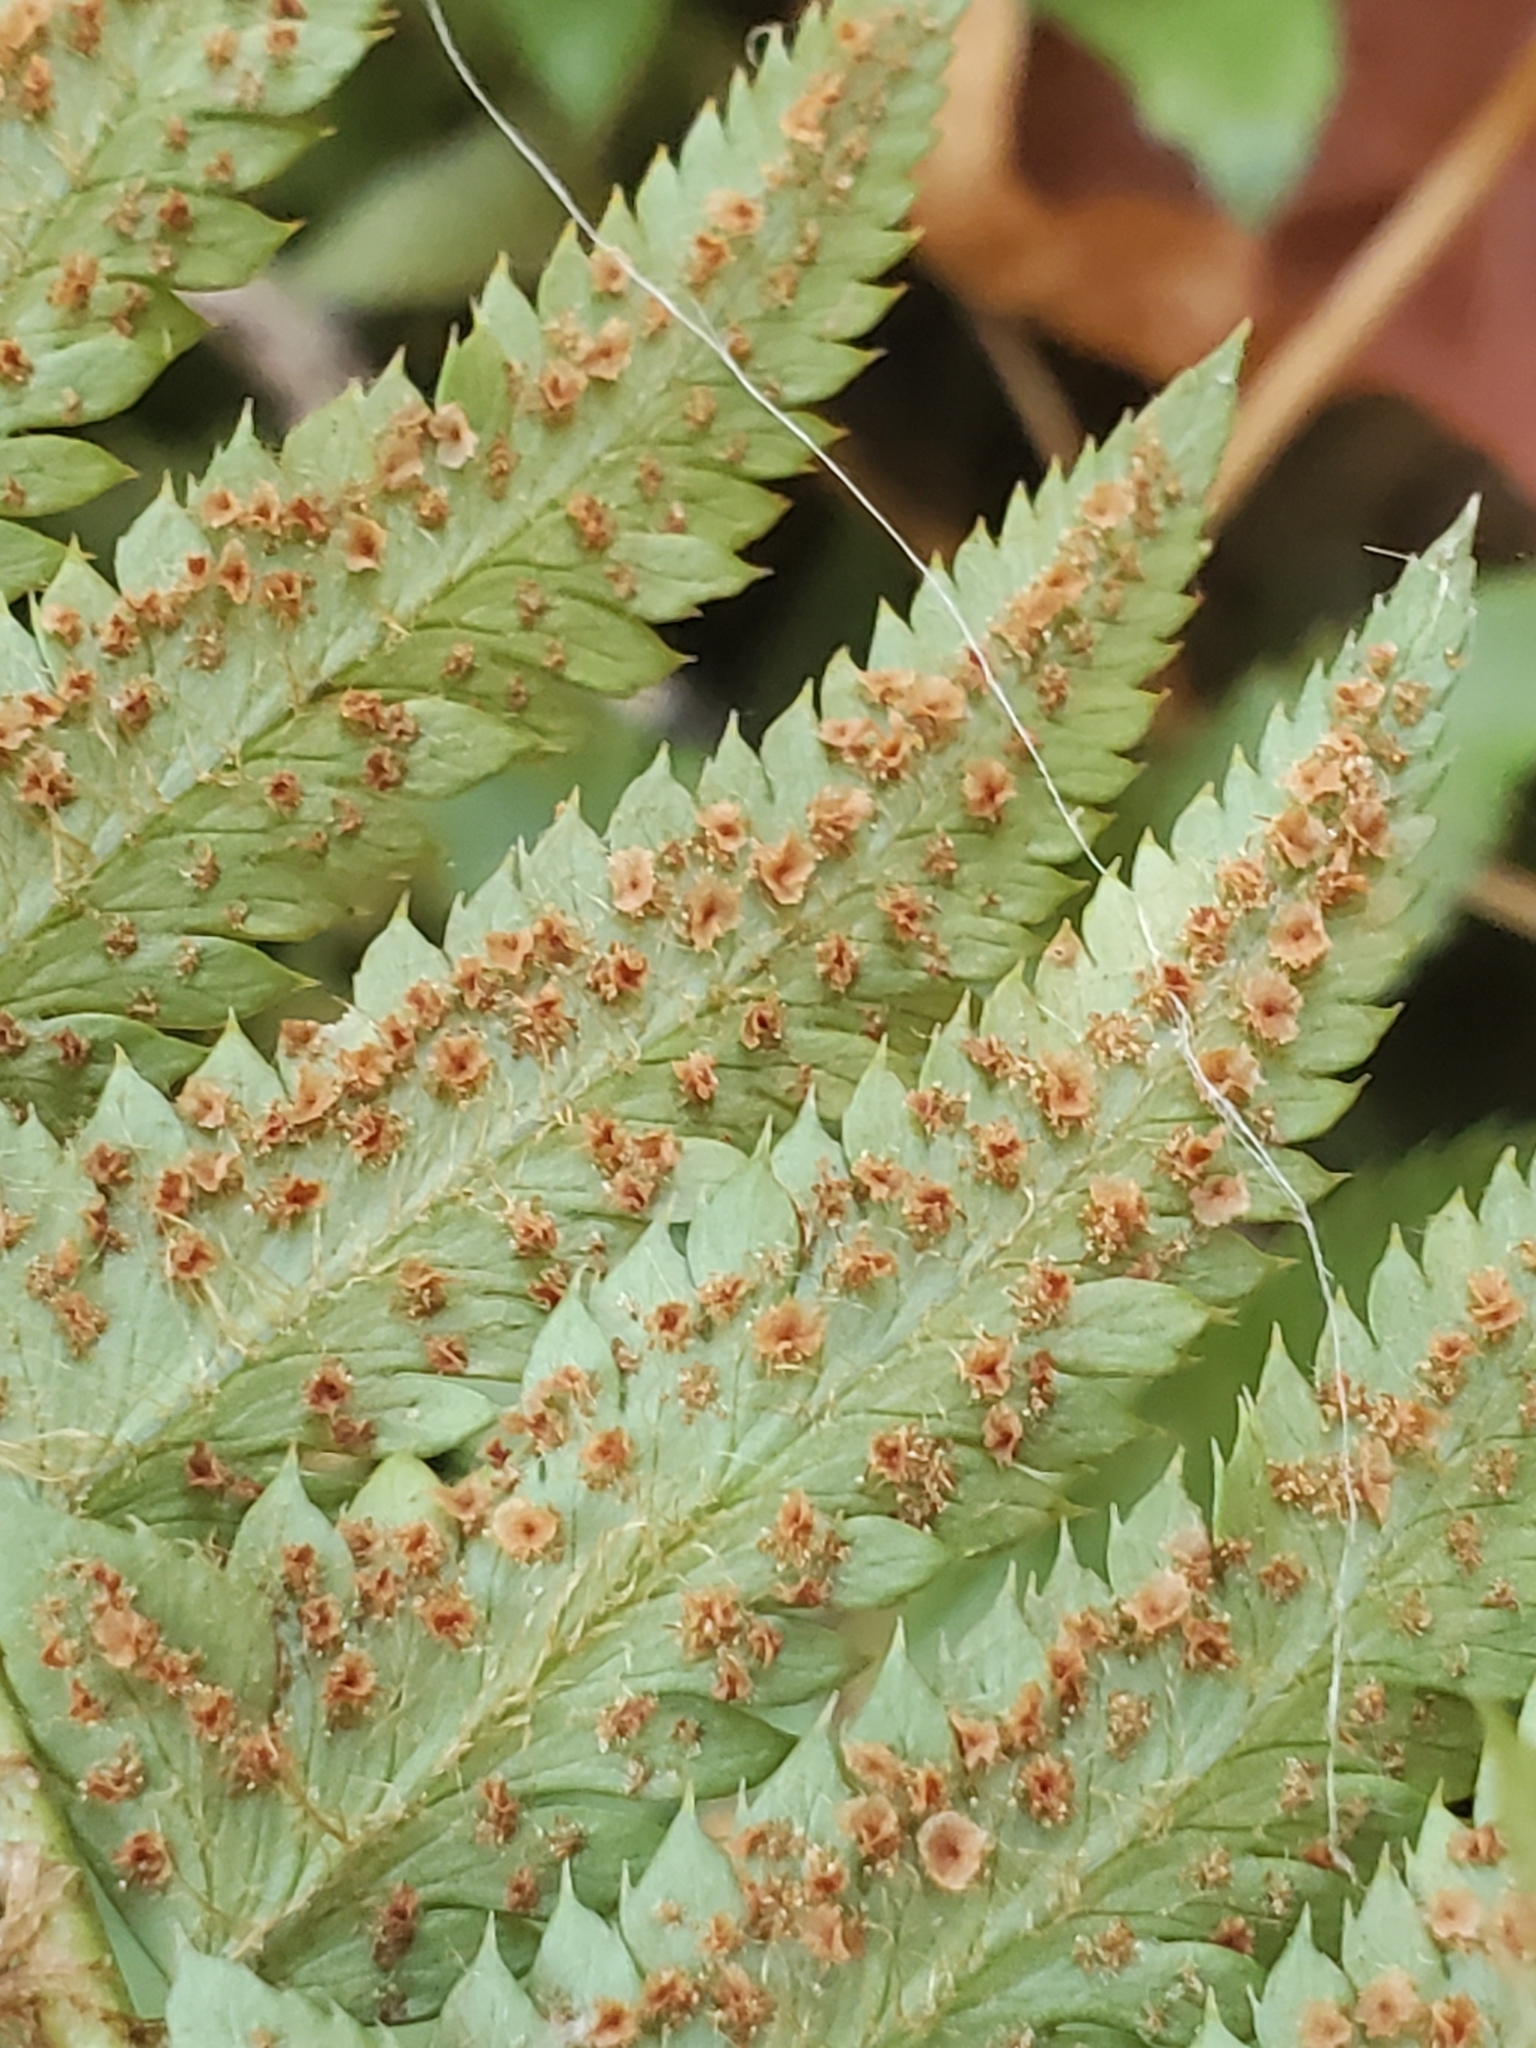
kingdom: Plantae
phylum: Tracheophyta
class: Polypodiopsida
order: Polypodiales
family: Dryopteridaceae
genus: Polystichum
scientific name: Polystichum
